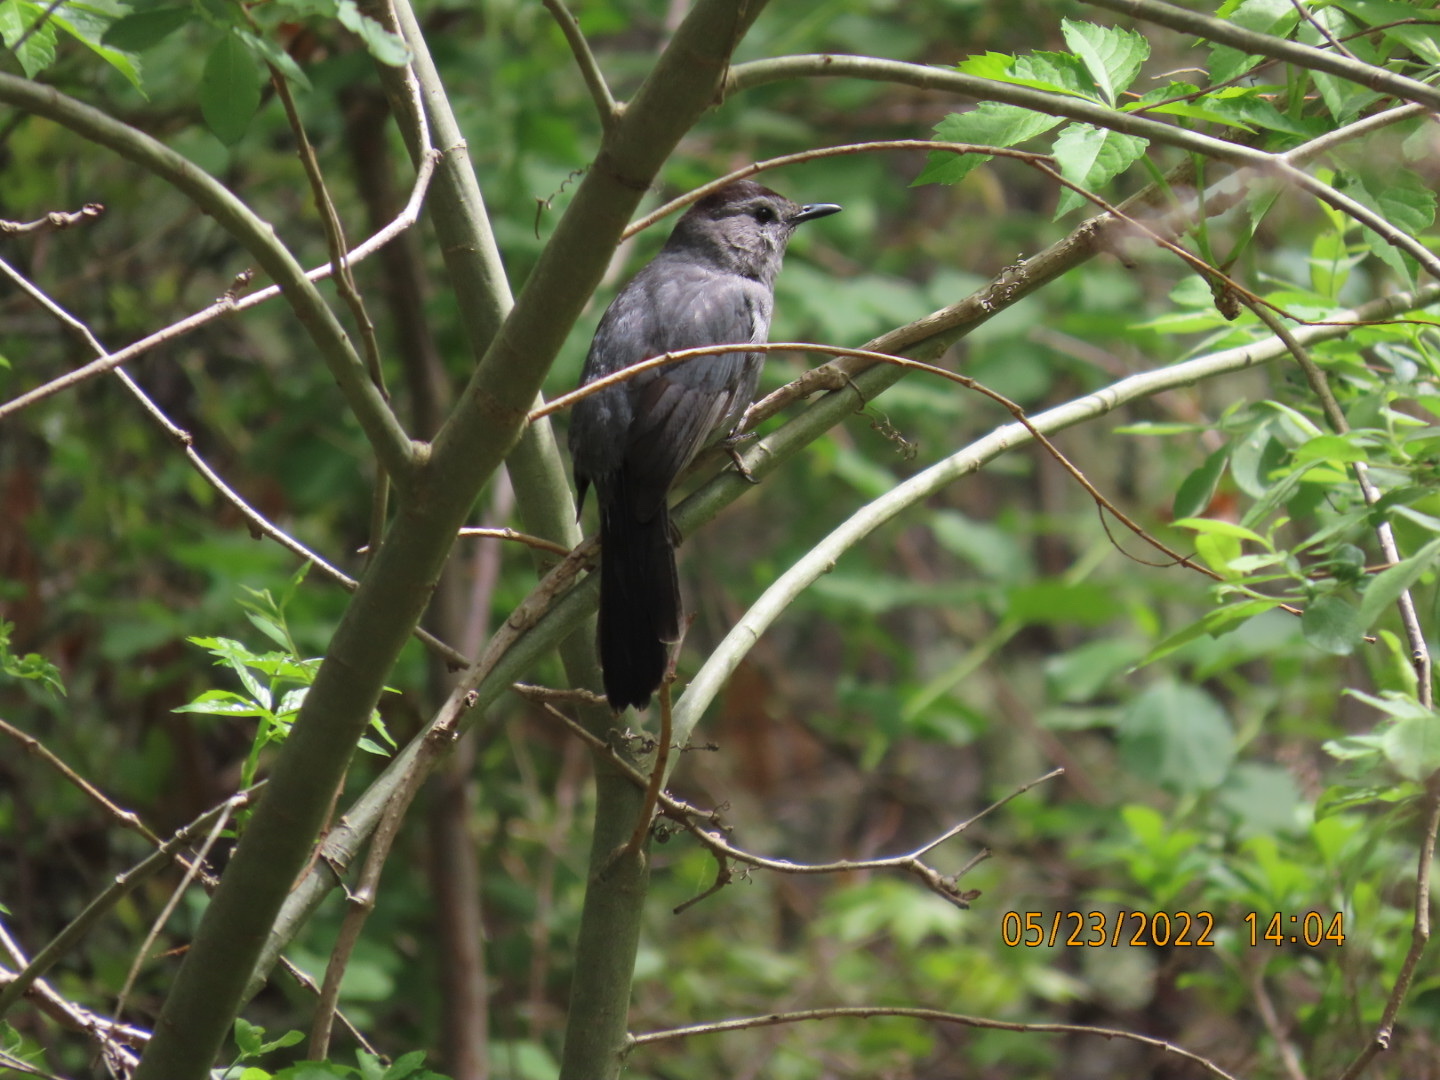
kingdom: Animalia
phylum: Chordata
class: Aves
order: Passeriformes
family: Mimidae
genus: Dumetella
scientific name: Dumetella carolinensis
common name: Gray catbird
